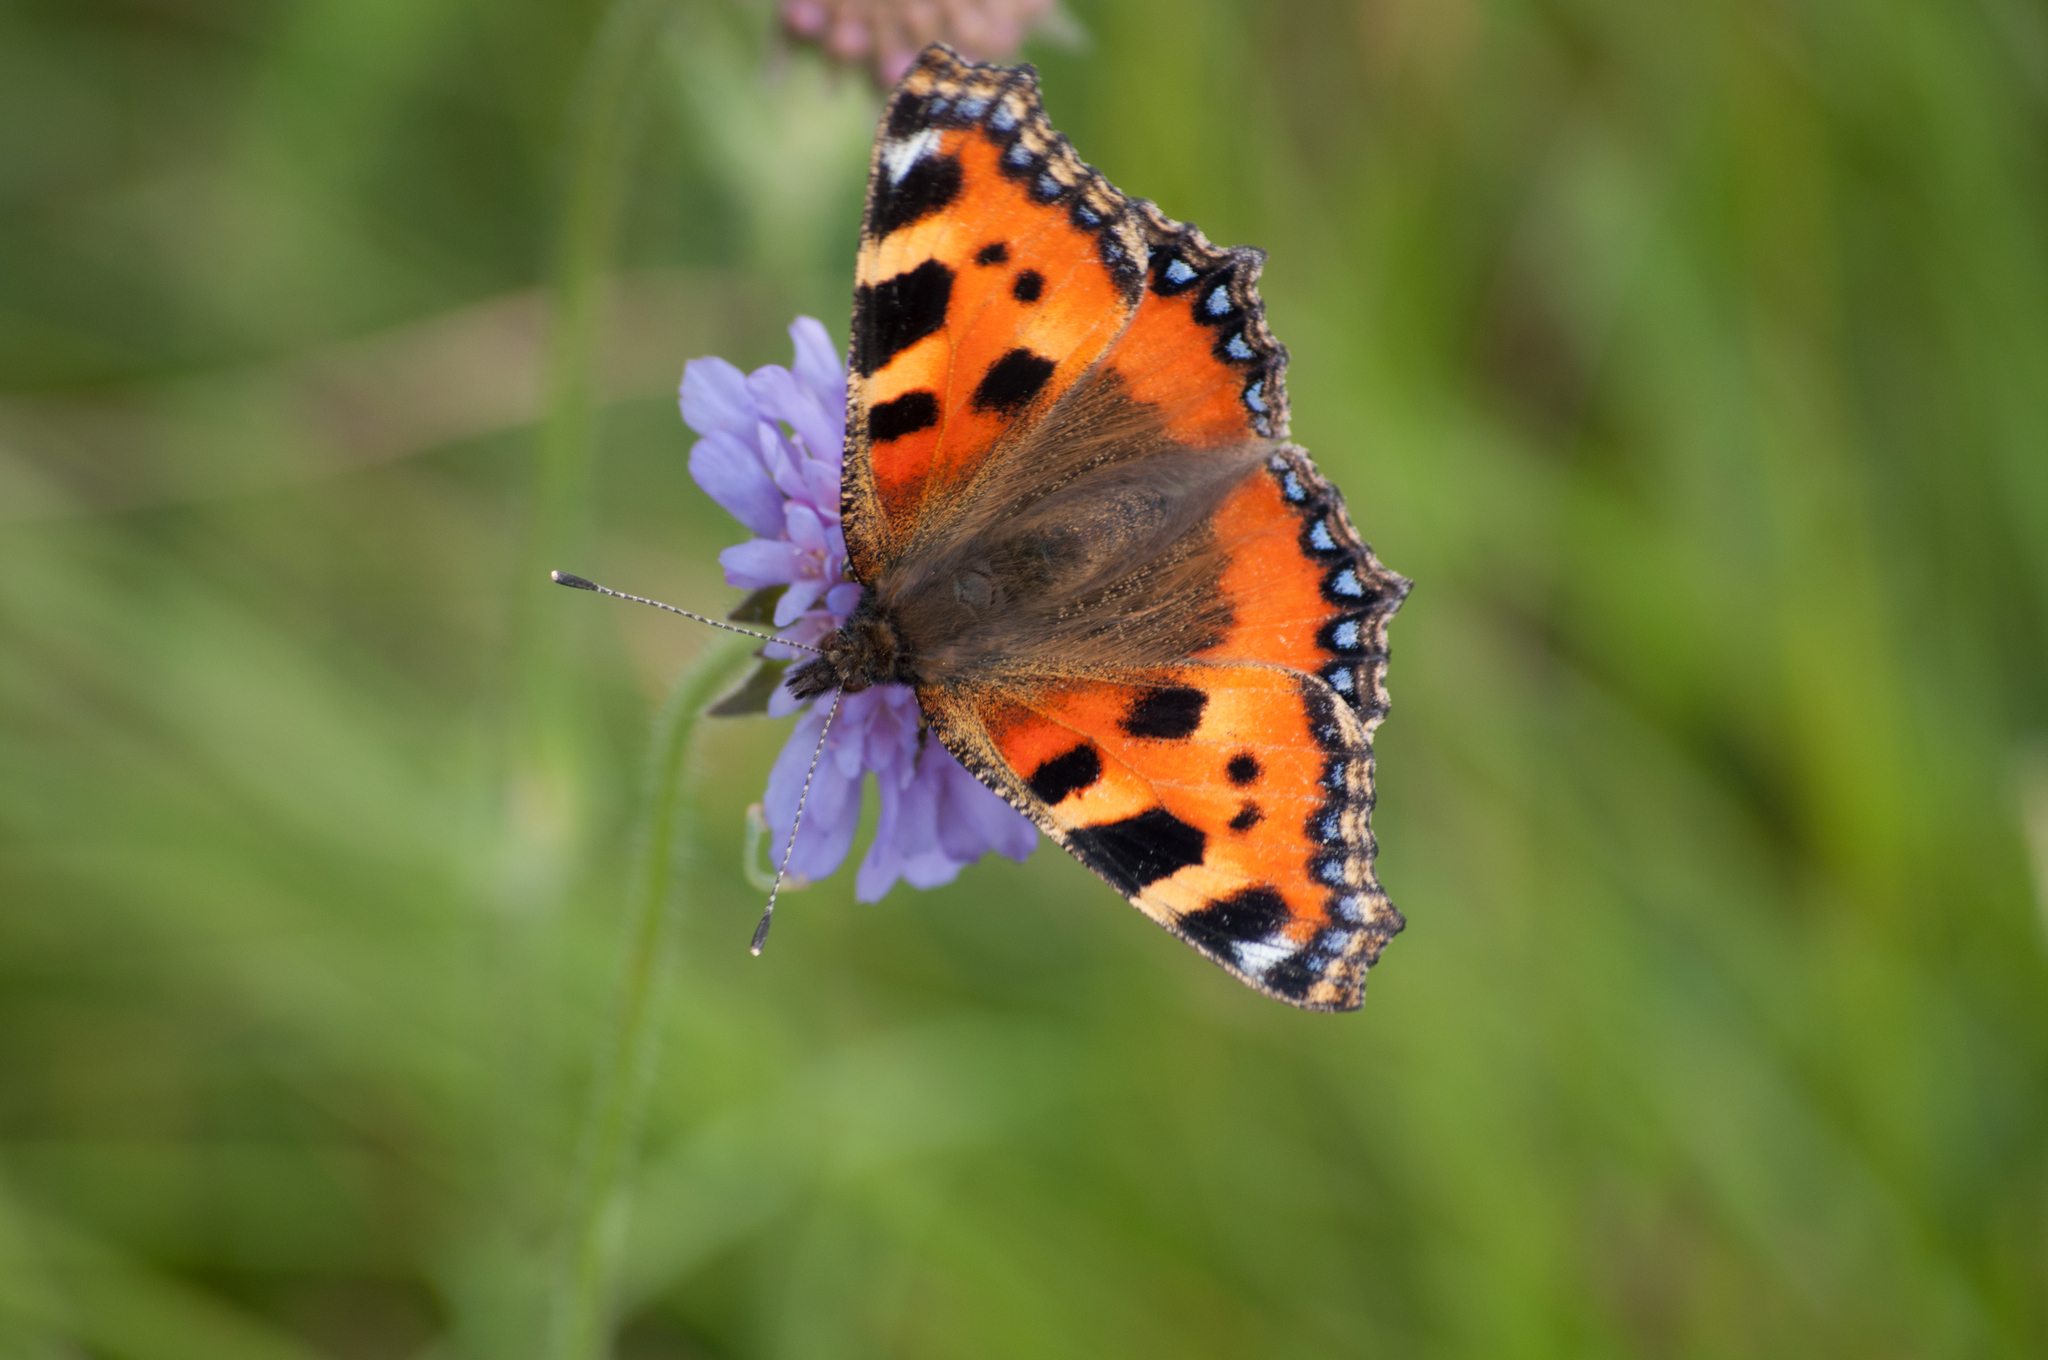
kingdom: Animalia
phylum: Arthropoda
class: Insecta
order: Lepidoptera
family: Nymphalidae
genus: Aglais
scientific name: Aglais urticae
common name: Small tortoiseshell
